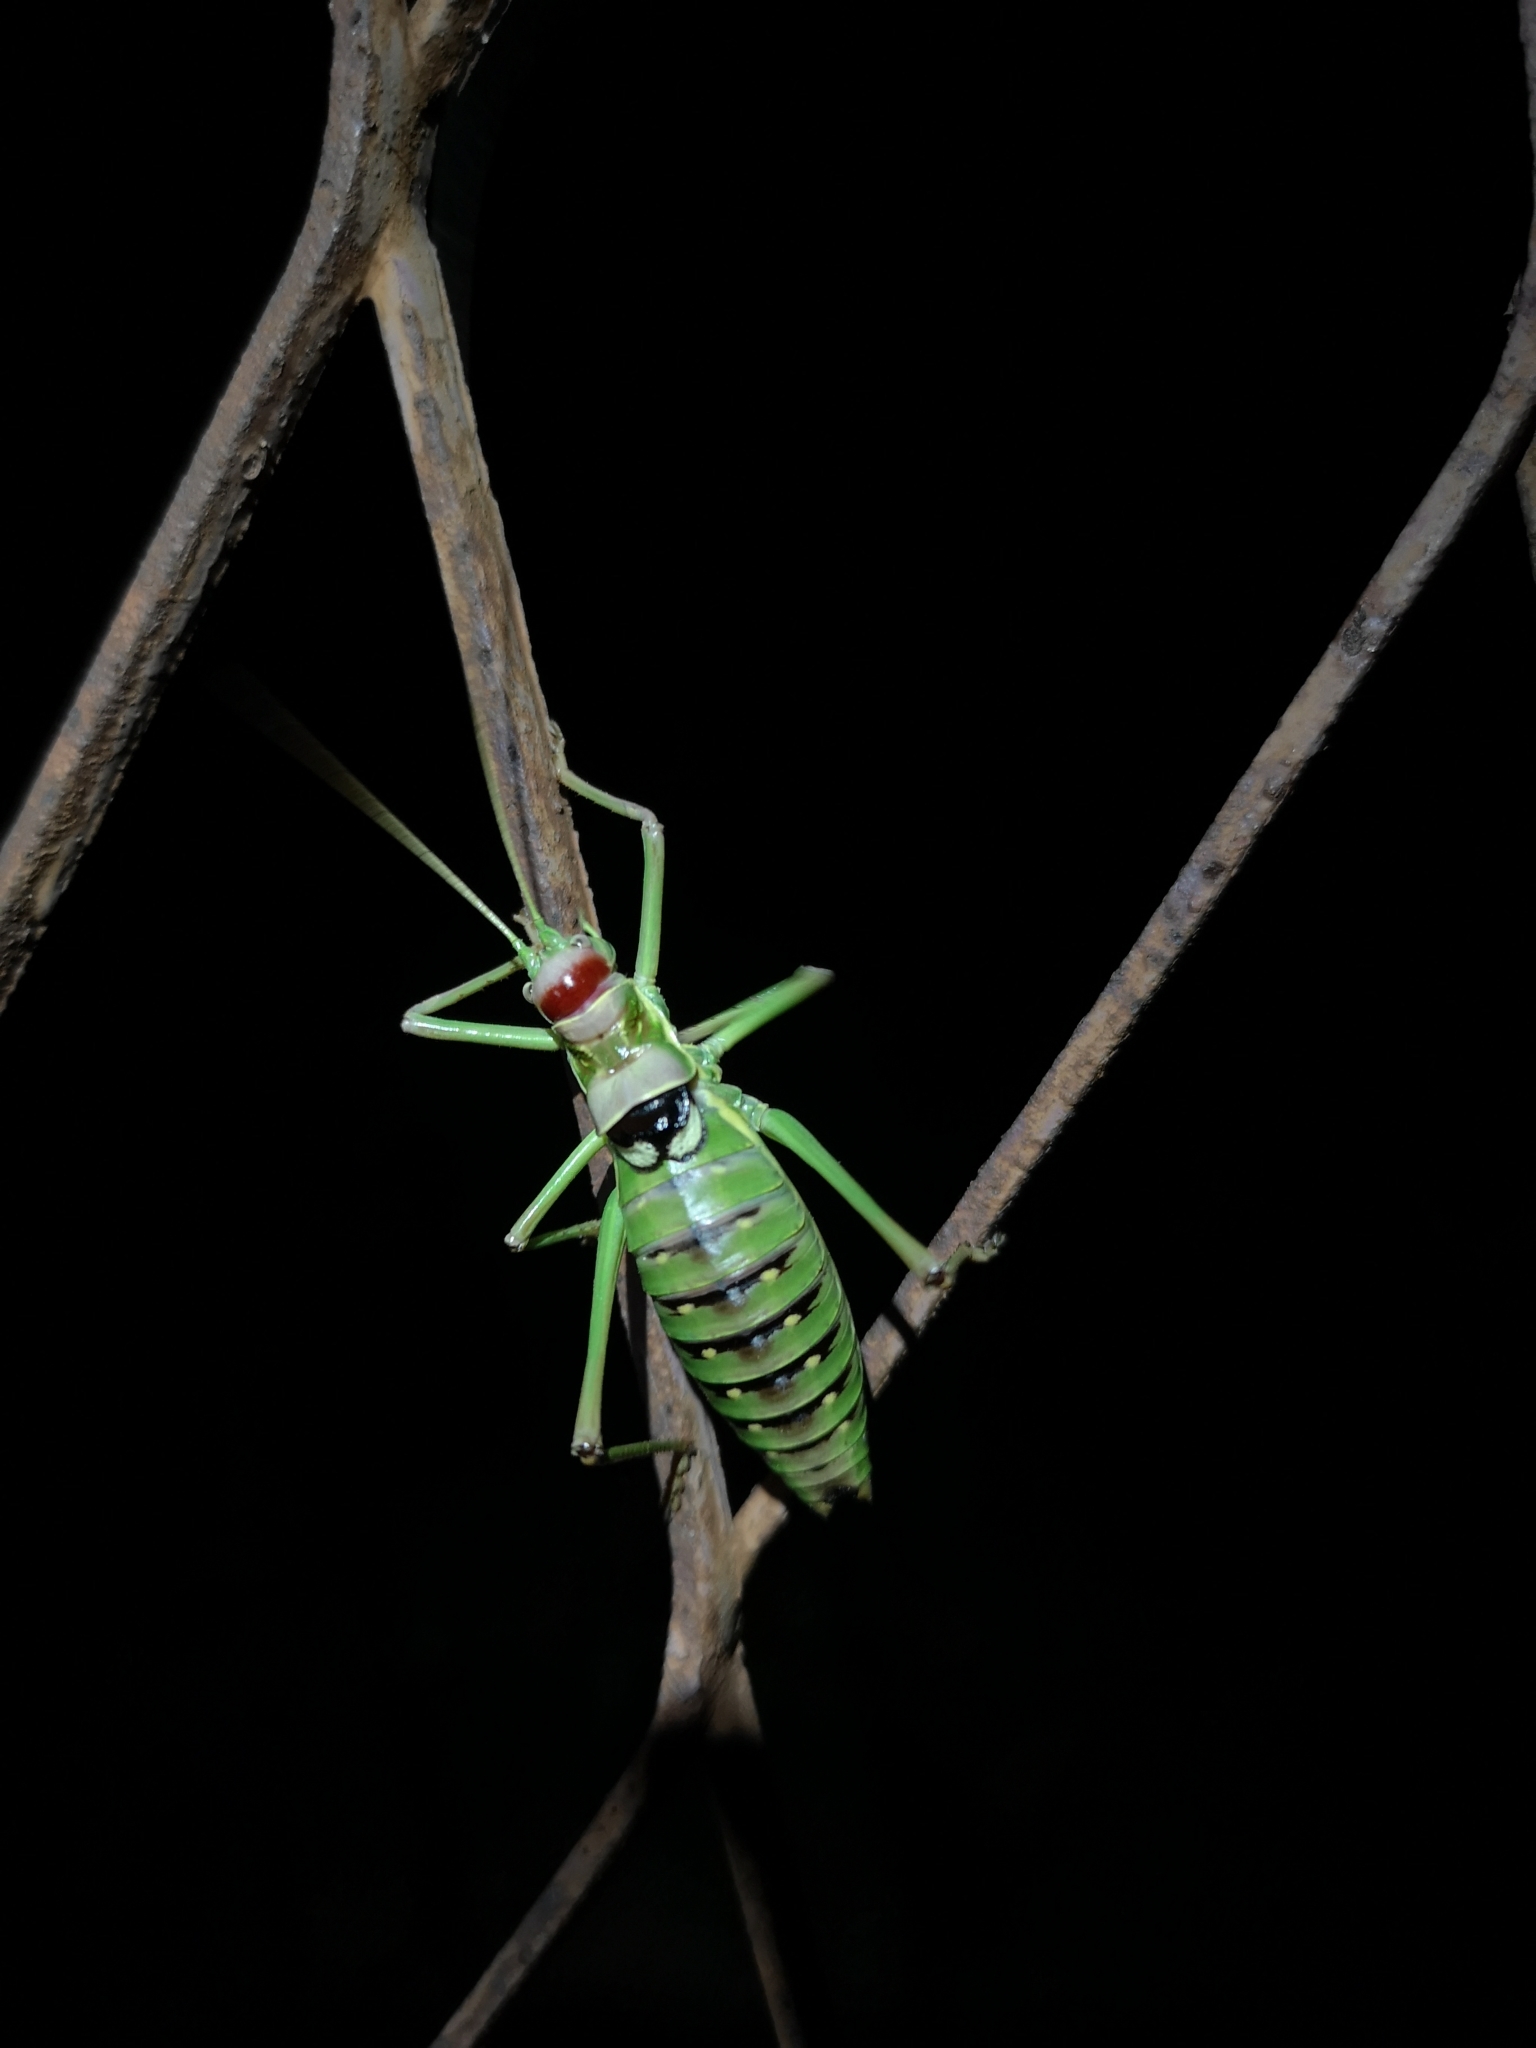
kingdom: Animalia
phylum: Arthropoda
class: Insecta
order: Orthoptera
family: Tettigoniidae
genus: Dinarippiger
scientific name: Dinarippiger discoidalis
